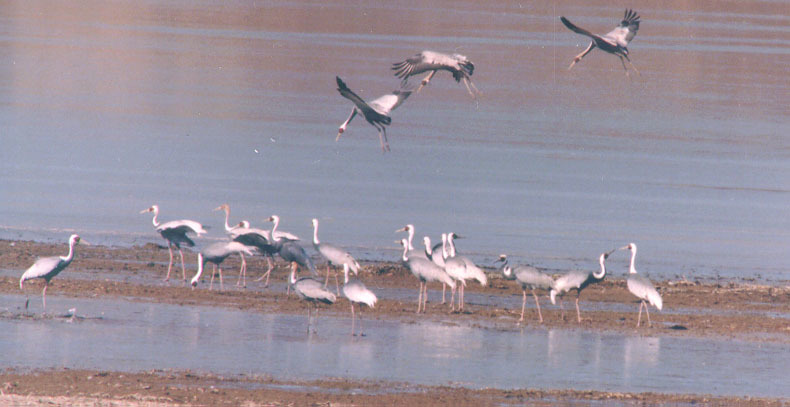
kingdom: Animalia
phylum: Chordata
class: Aves
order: Gruiformes
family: Gruidae
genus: Grus
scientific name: Grus vipio
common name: White-naped crane
